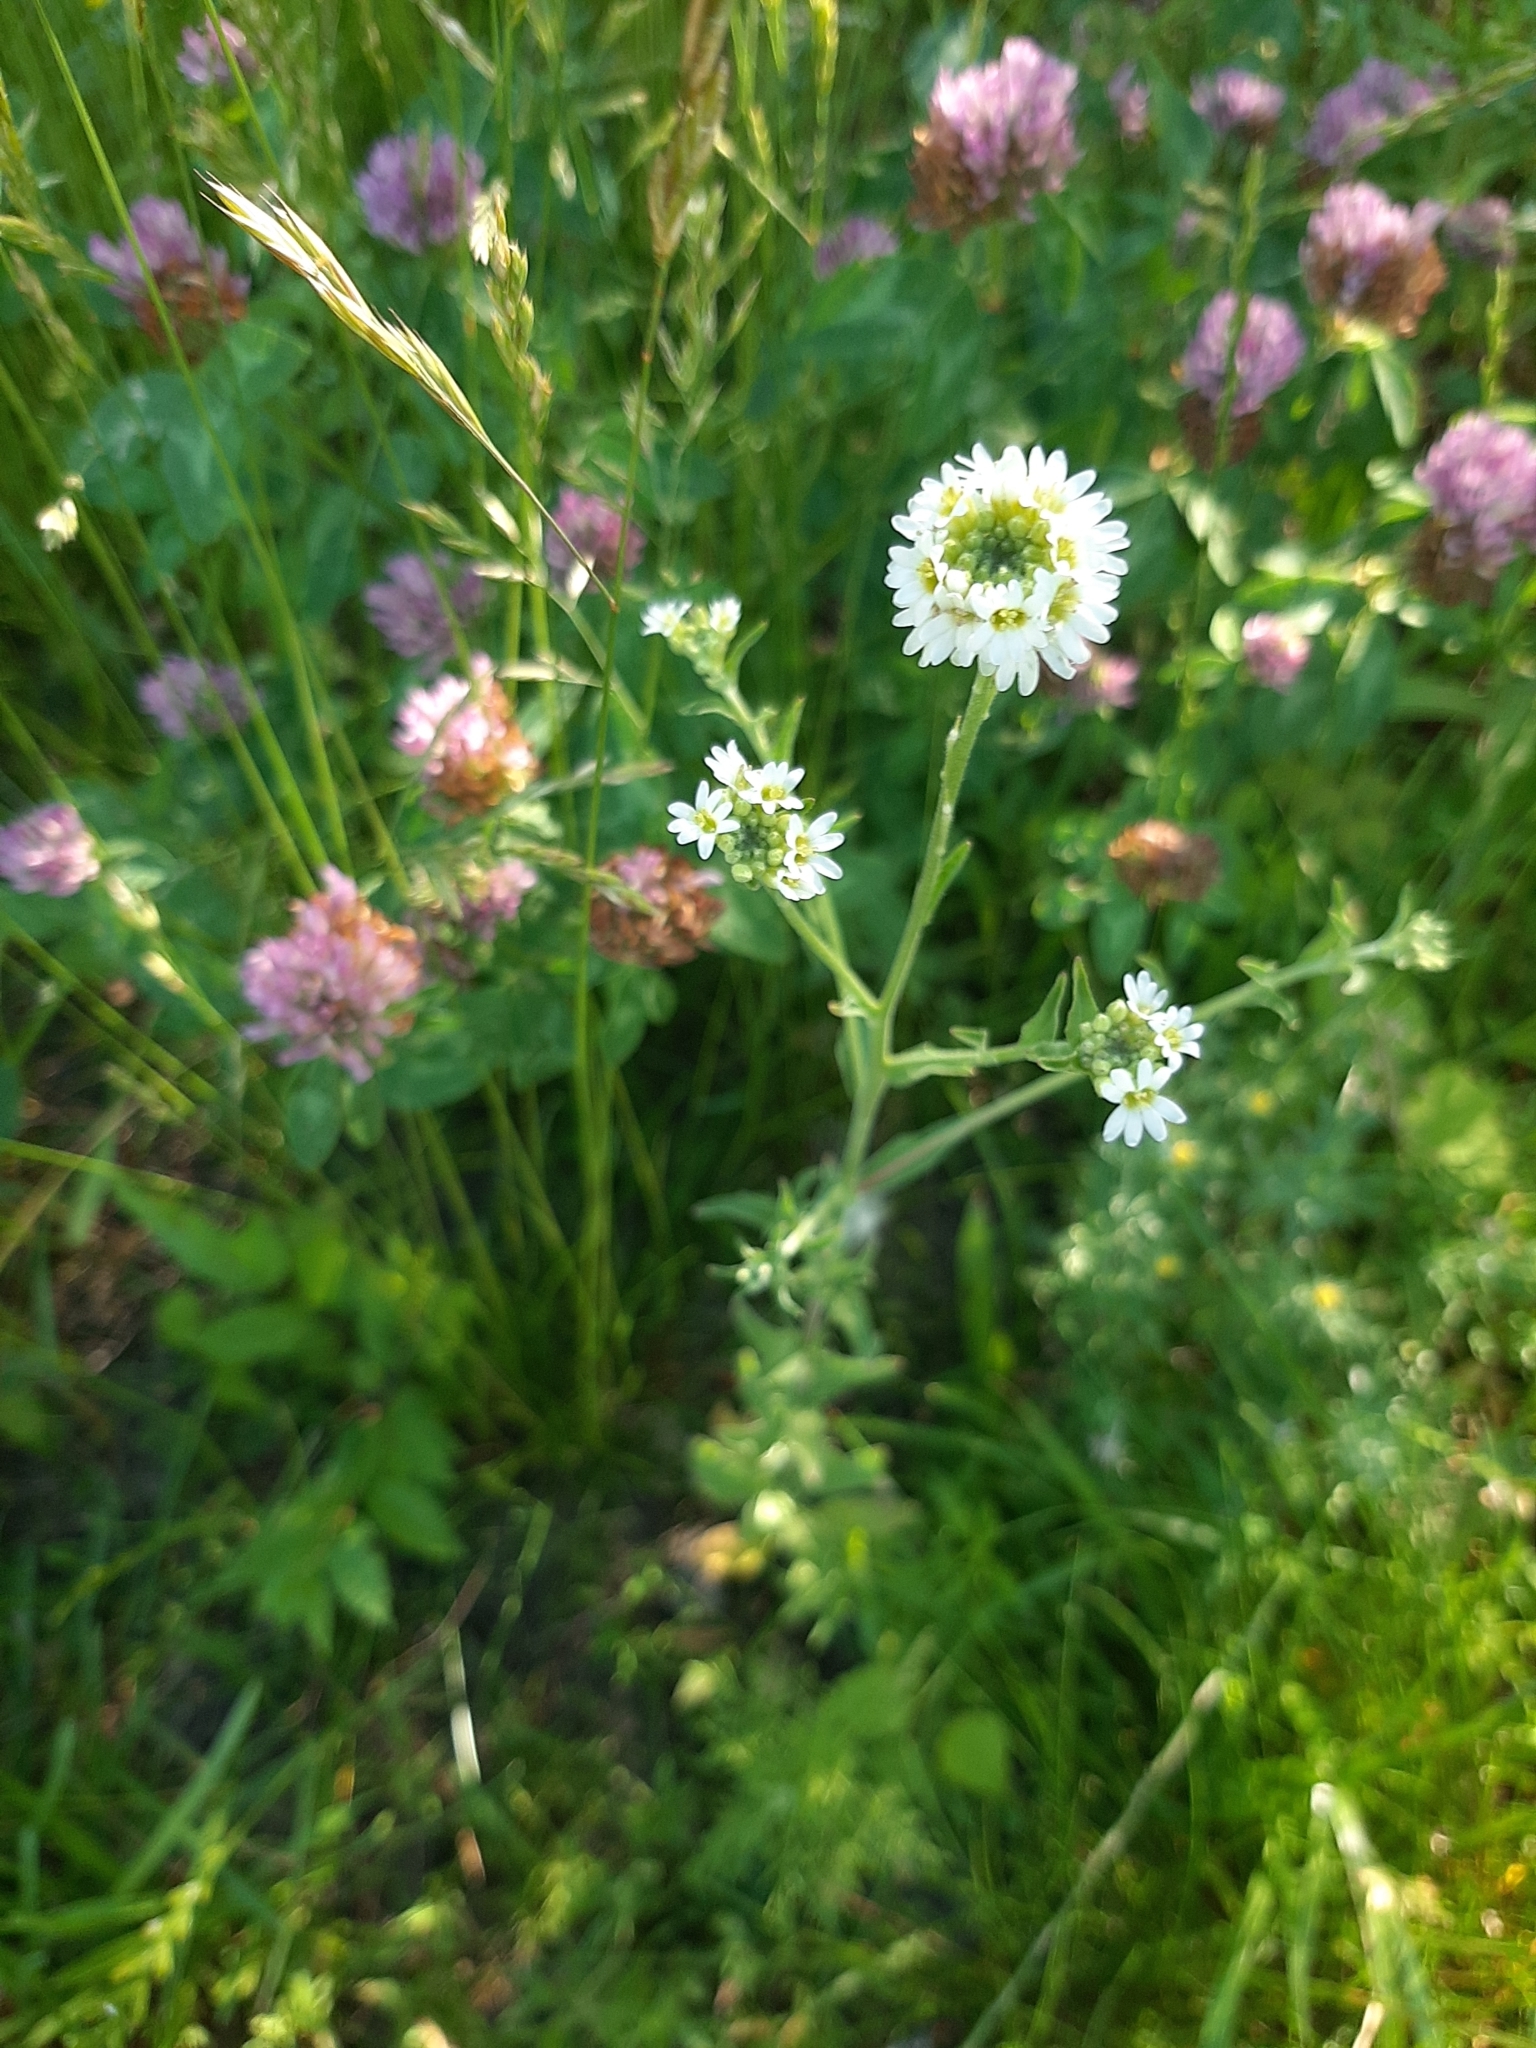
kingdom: Plantae
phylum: Tracheophyta
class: Magnoliopsida
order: Brassicales
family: Brassicaceae
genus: Berteroa
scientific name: Berteroa incana
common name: Hoary alison
